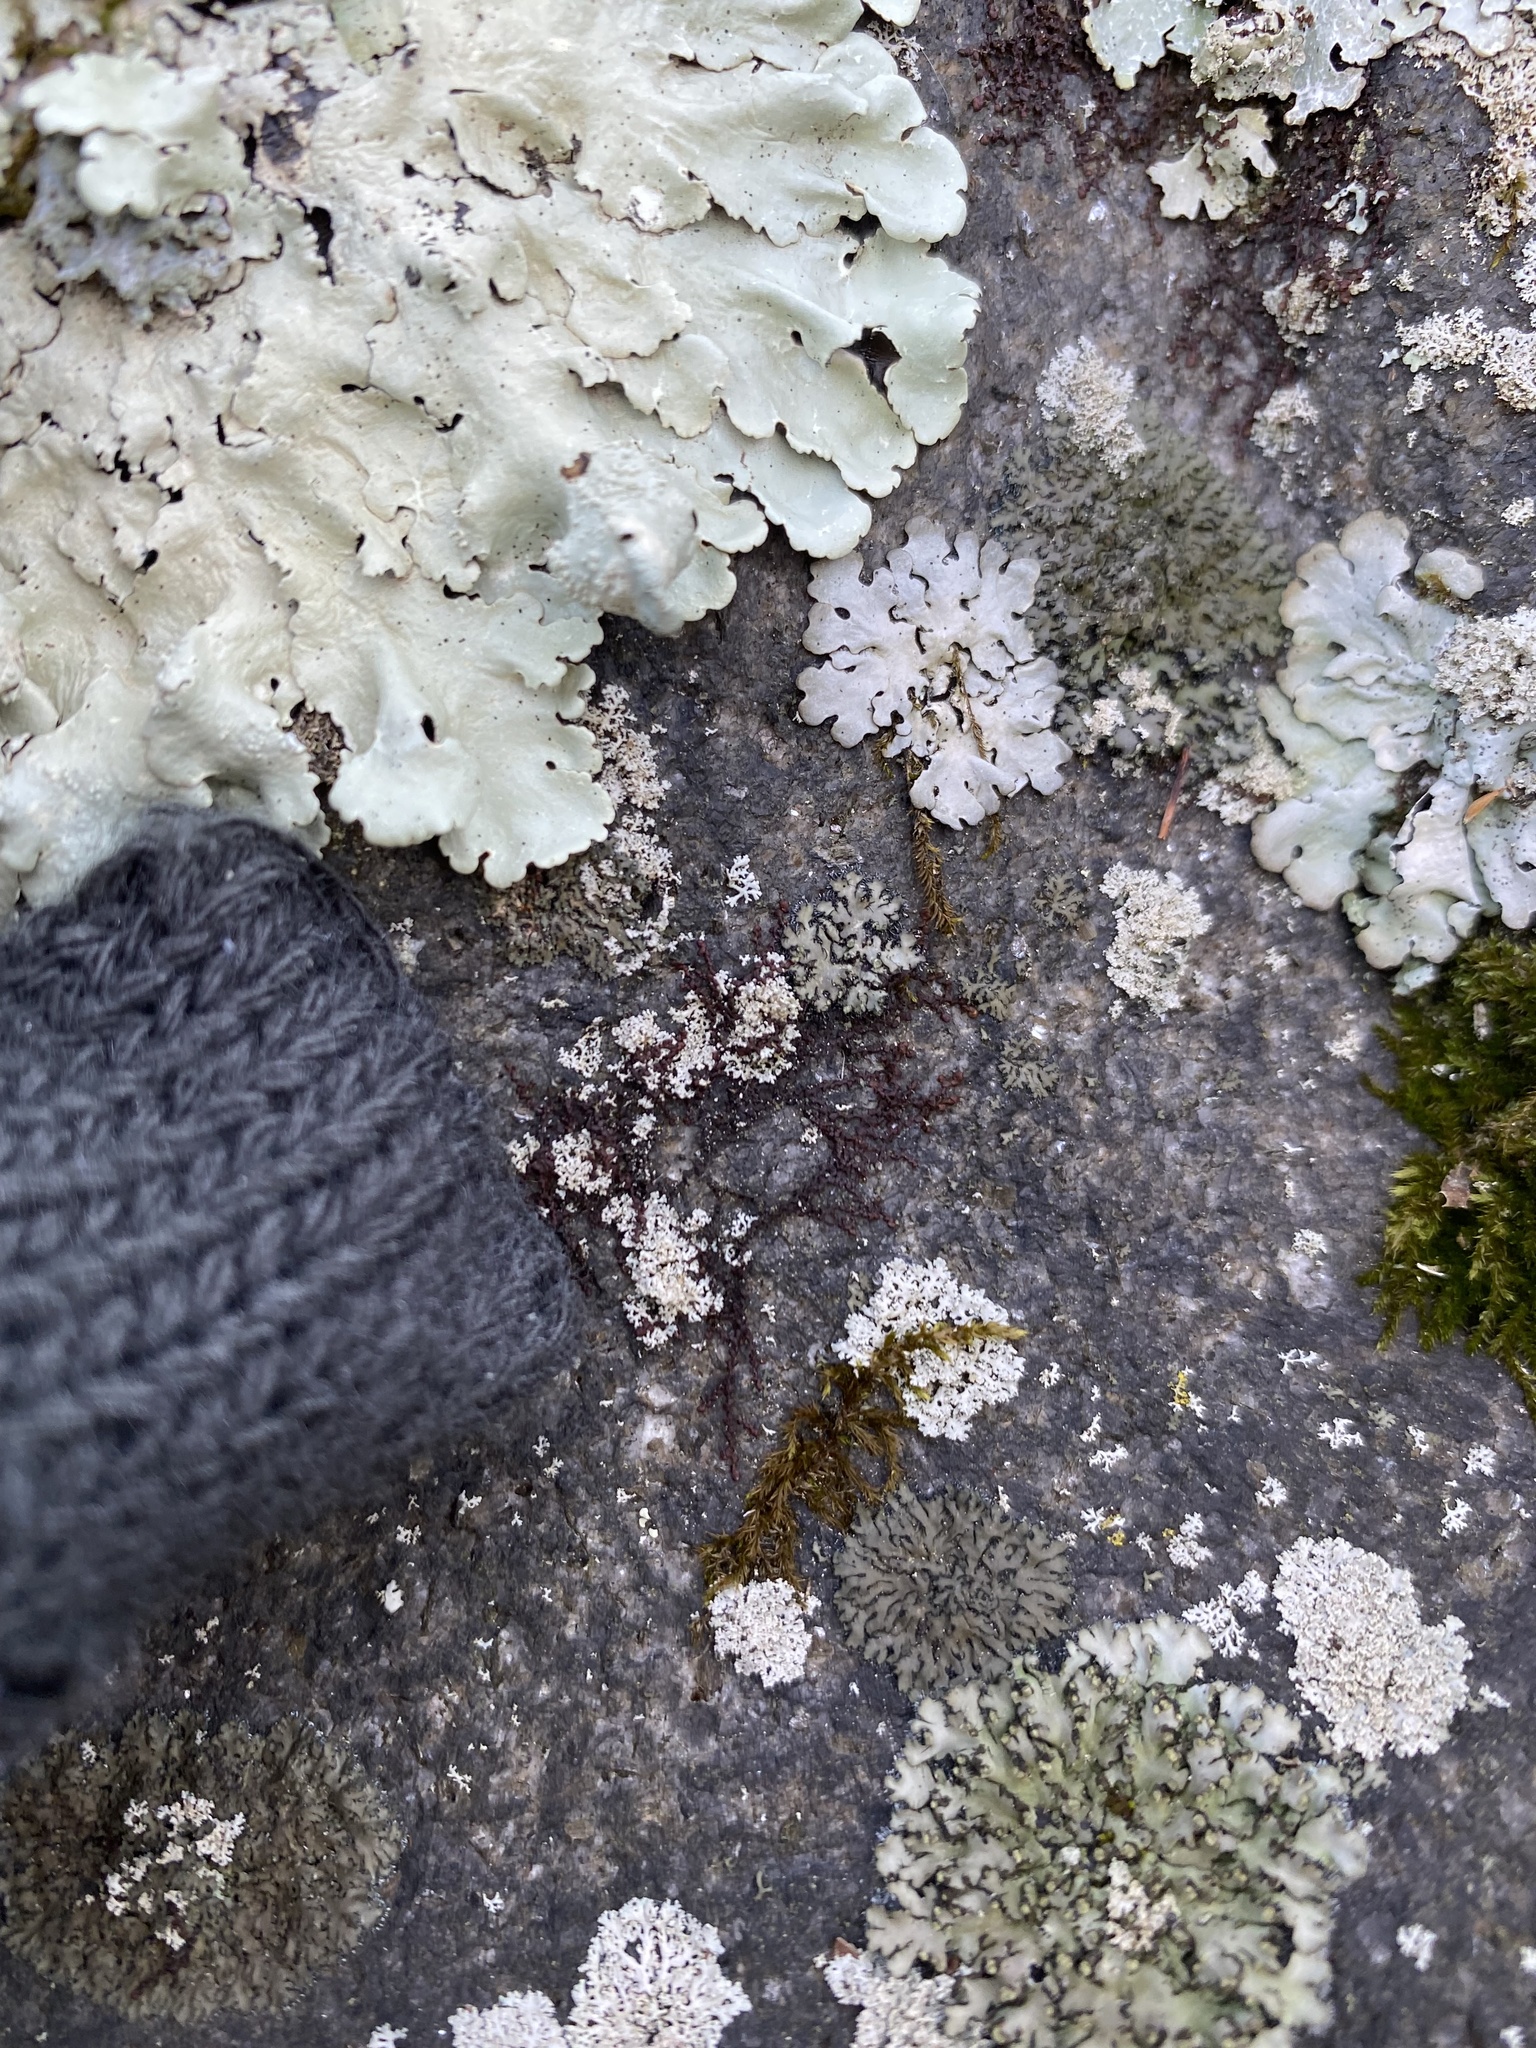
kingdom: Plantae
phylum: Marchantiophyta
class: Jungermanniopsida
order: Porellales
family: Frullaniaceae
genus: Frullania
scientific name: Frullania eboracensis
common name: New york scalewort
